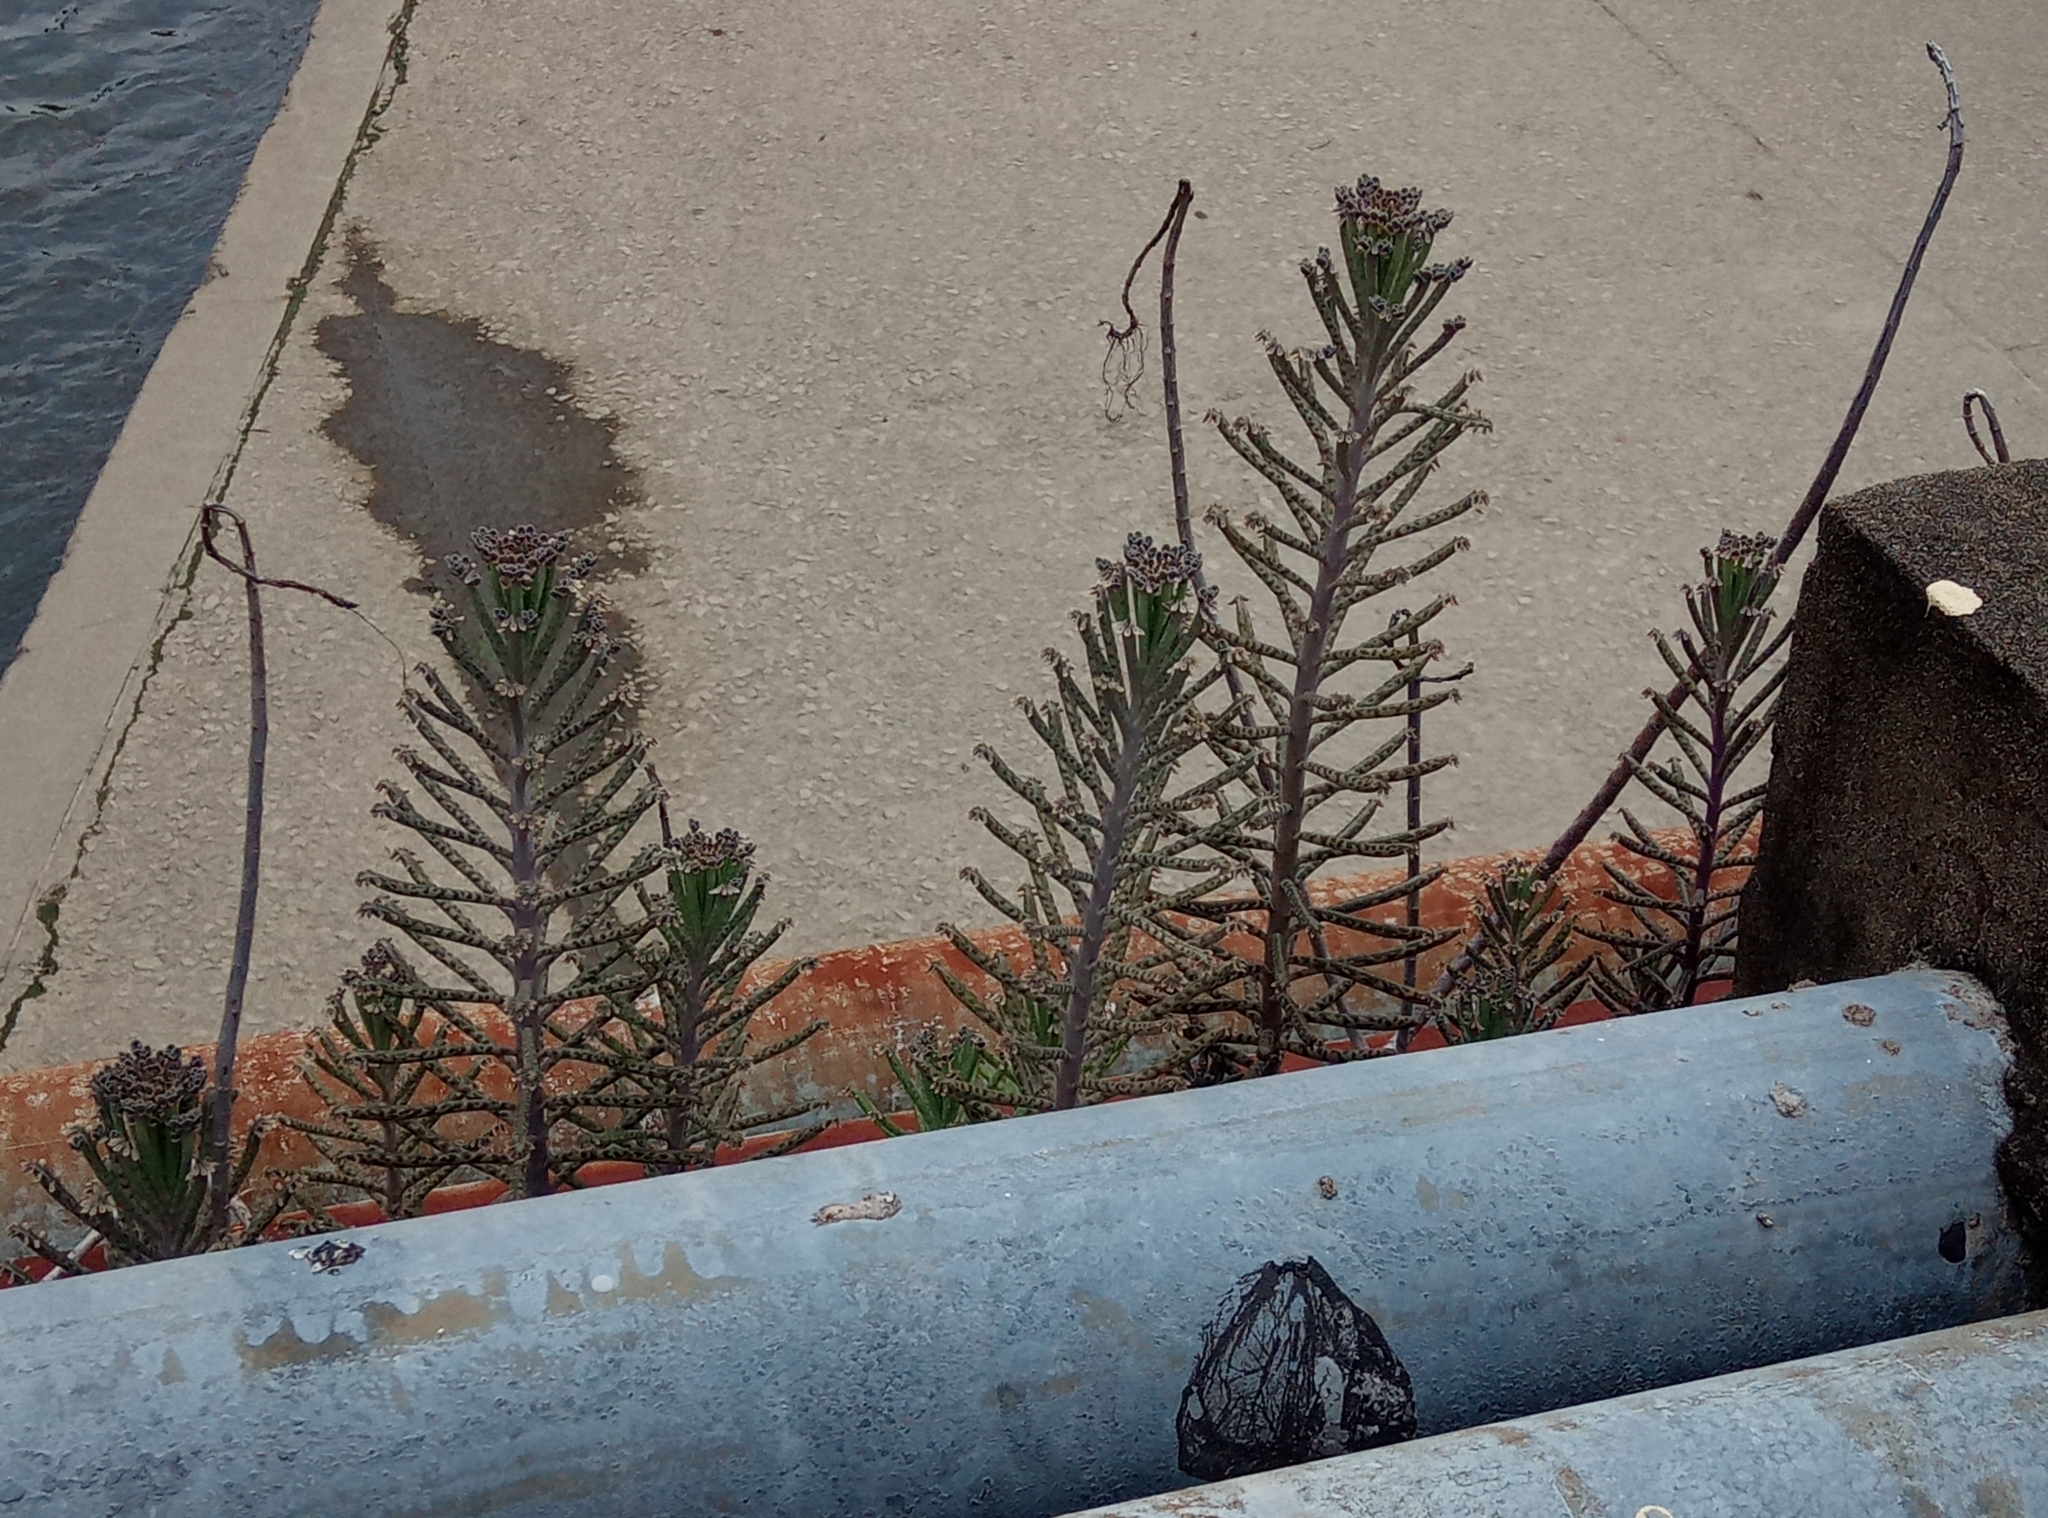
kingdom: Plantae
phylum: Tracheophyta
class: Magnoliopsida
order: Saxifragales
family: Crassulaceae
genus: Kalanchoe
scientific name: Kalanchoe delagoensis
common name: Chandelier plant
